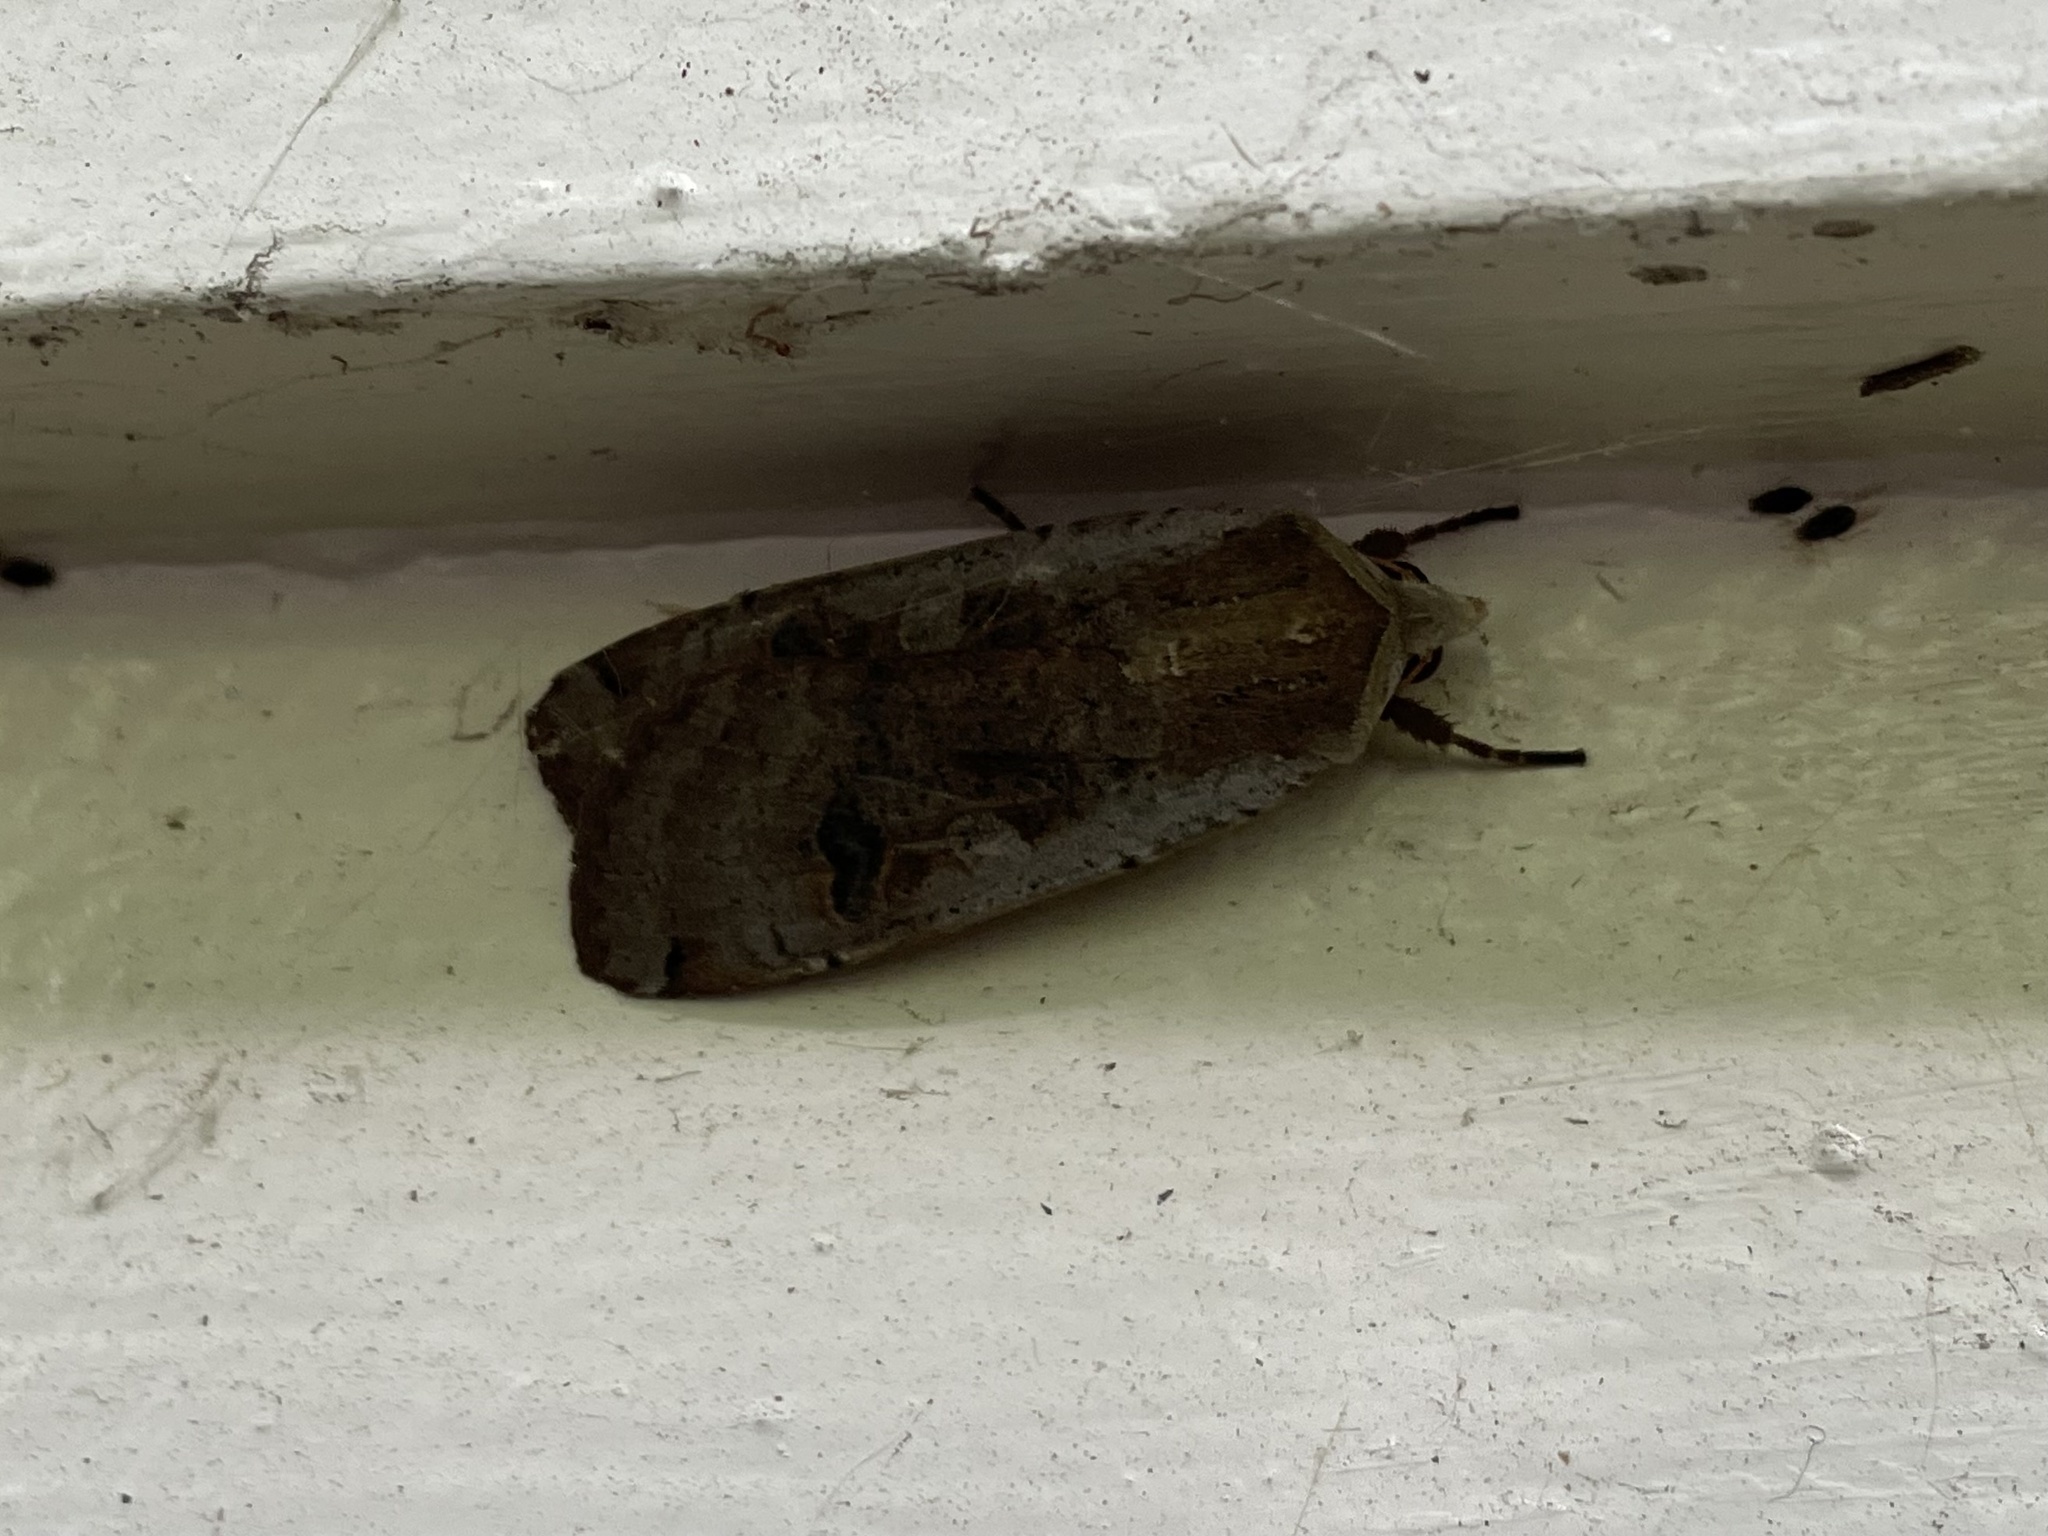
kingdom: Animalia
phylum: Arthropoda
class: Insecta
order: Lepidoptera
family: Noctuidae
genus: Noctua
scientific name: Noctua pronuba
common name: Large yellow underwing
